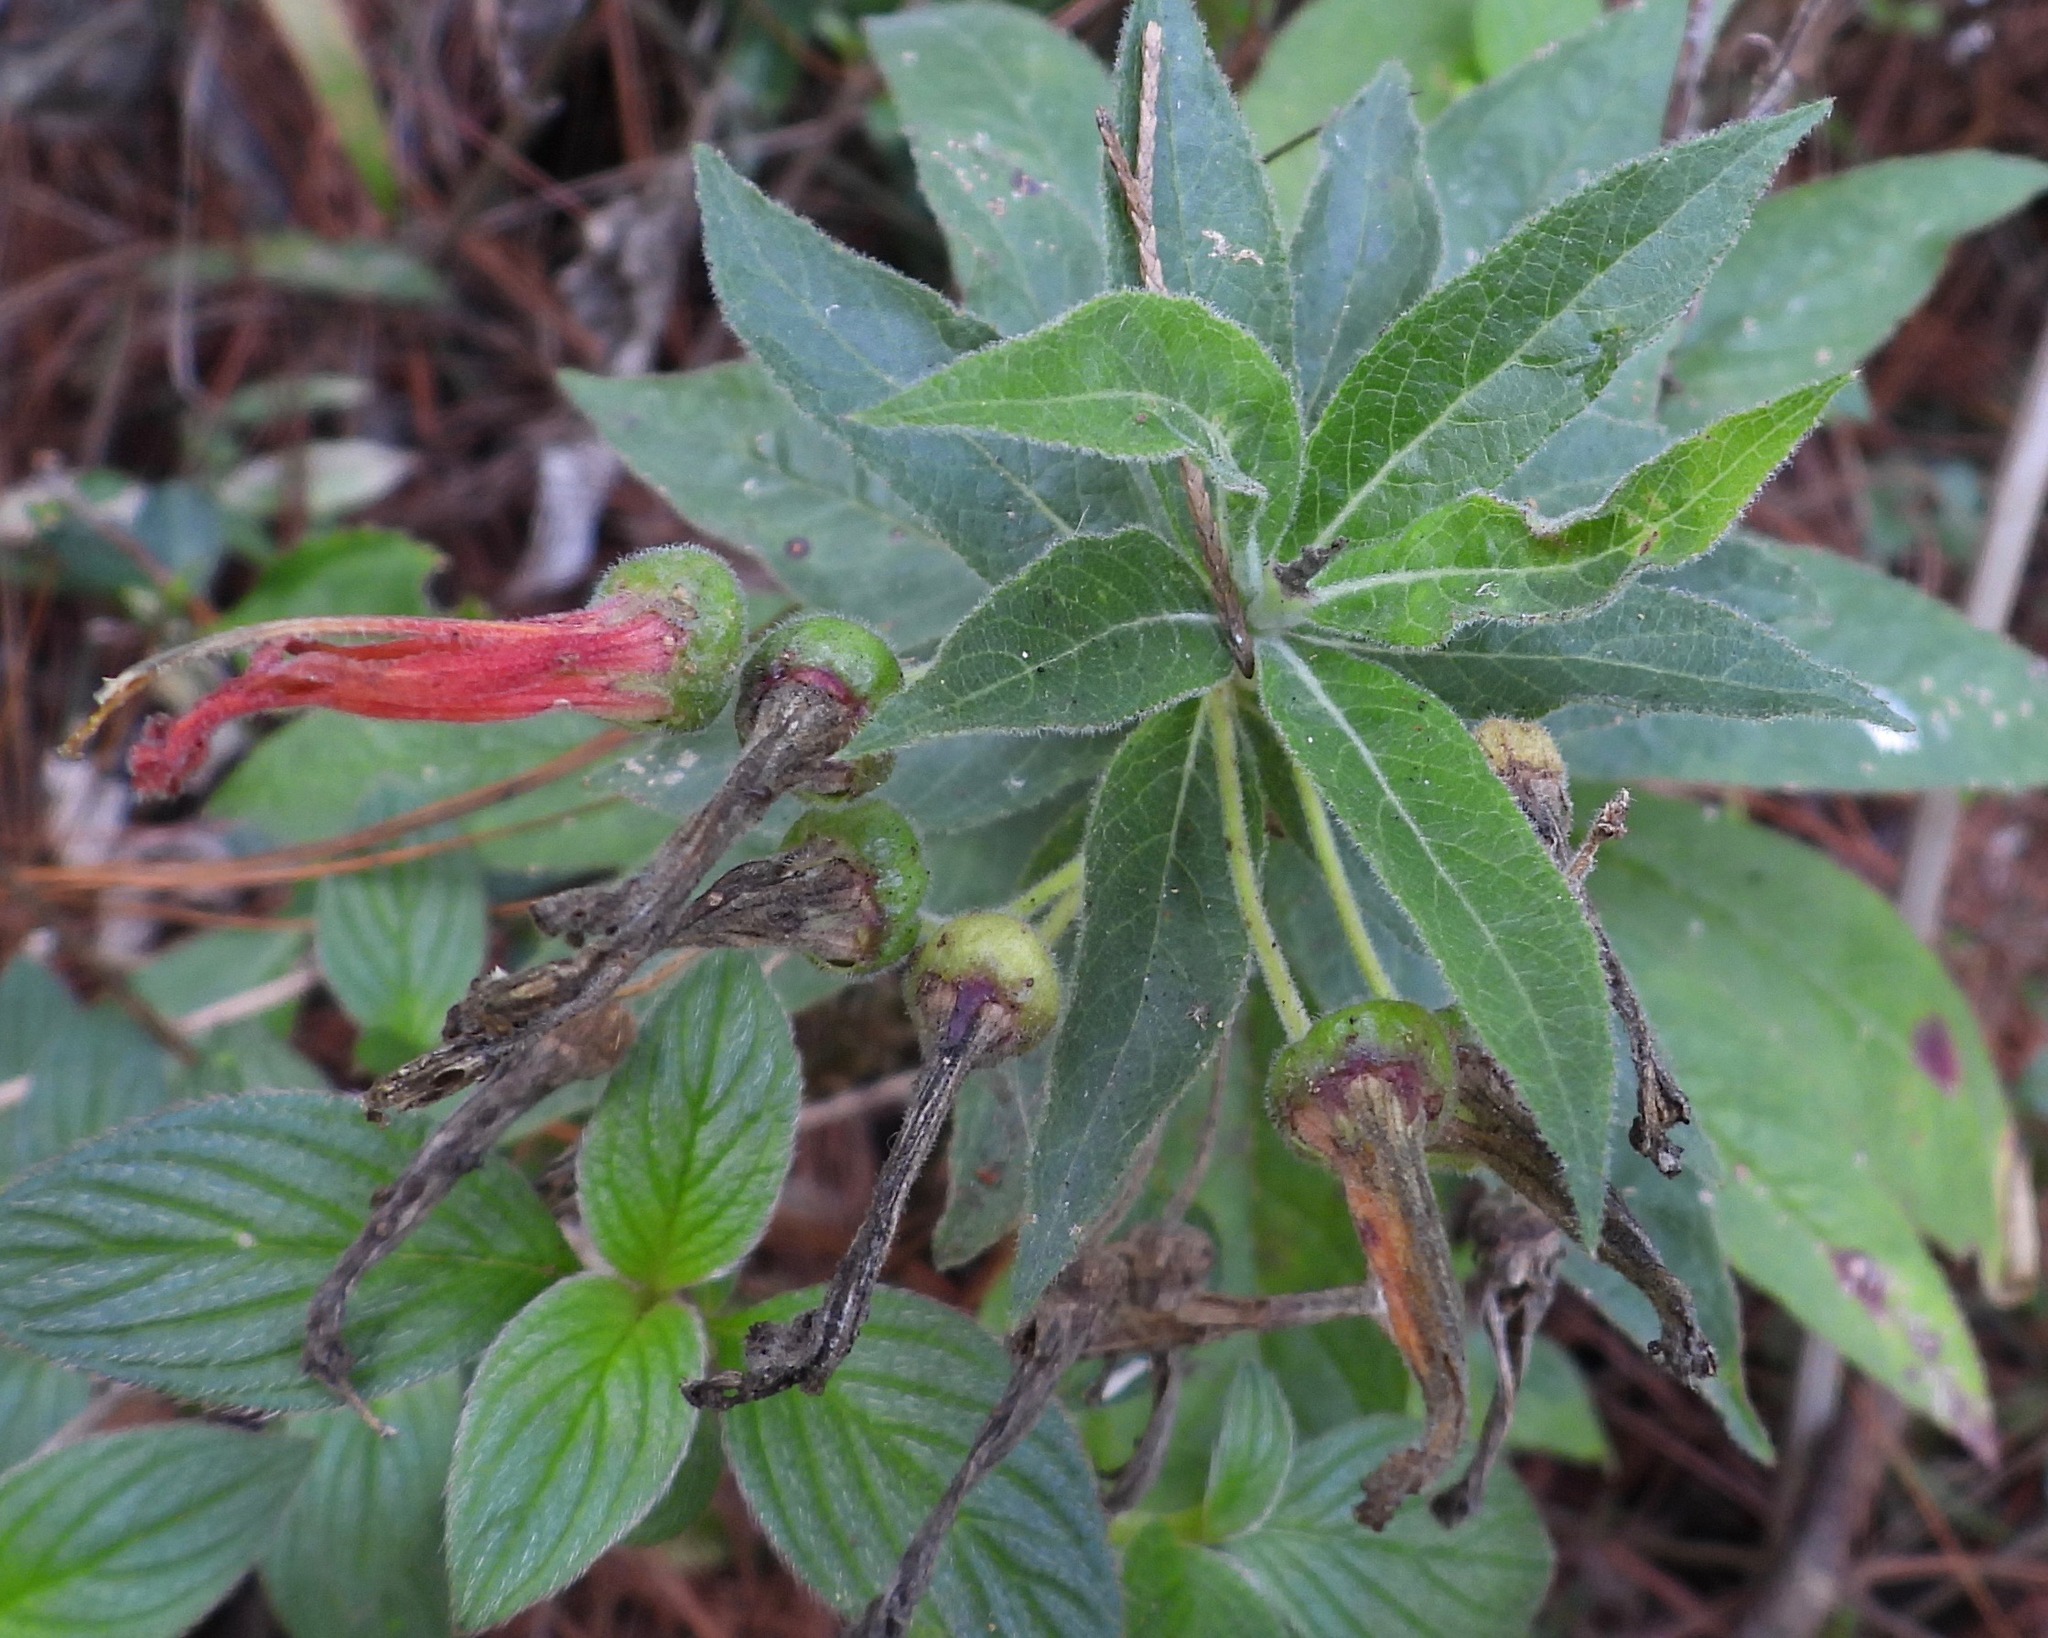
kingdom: Plantae
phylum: Tracheophyta
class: Magnoliopsida
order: Asterales
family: Campanulaceae
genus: Lobelia
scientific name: Lobelia laxiflora
